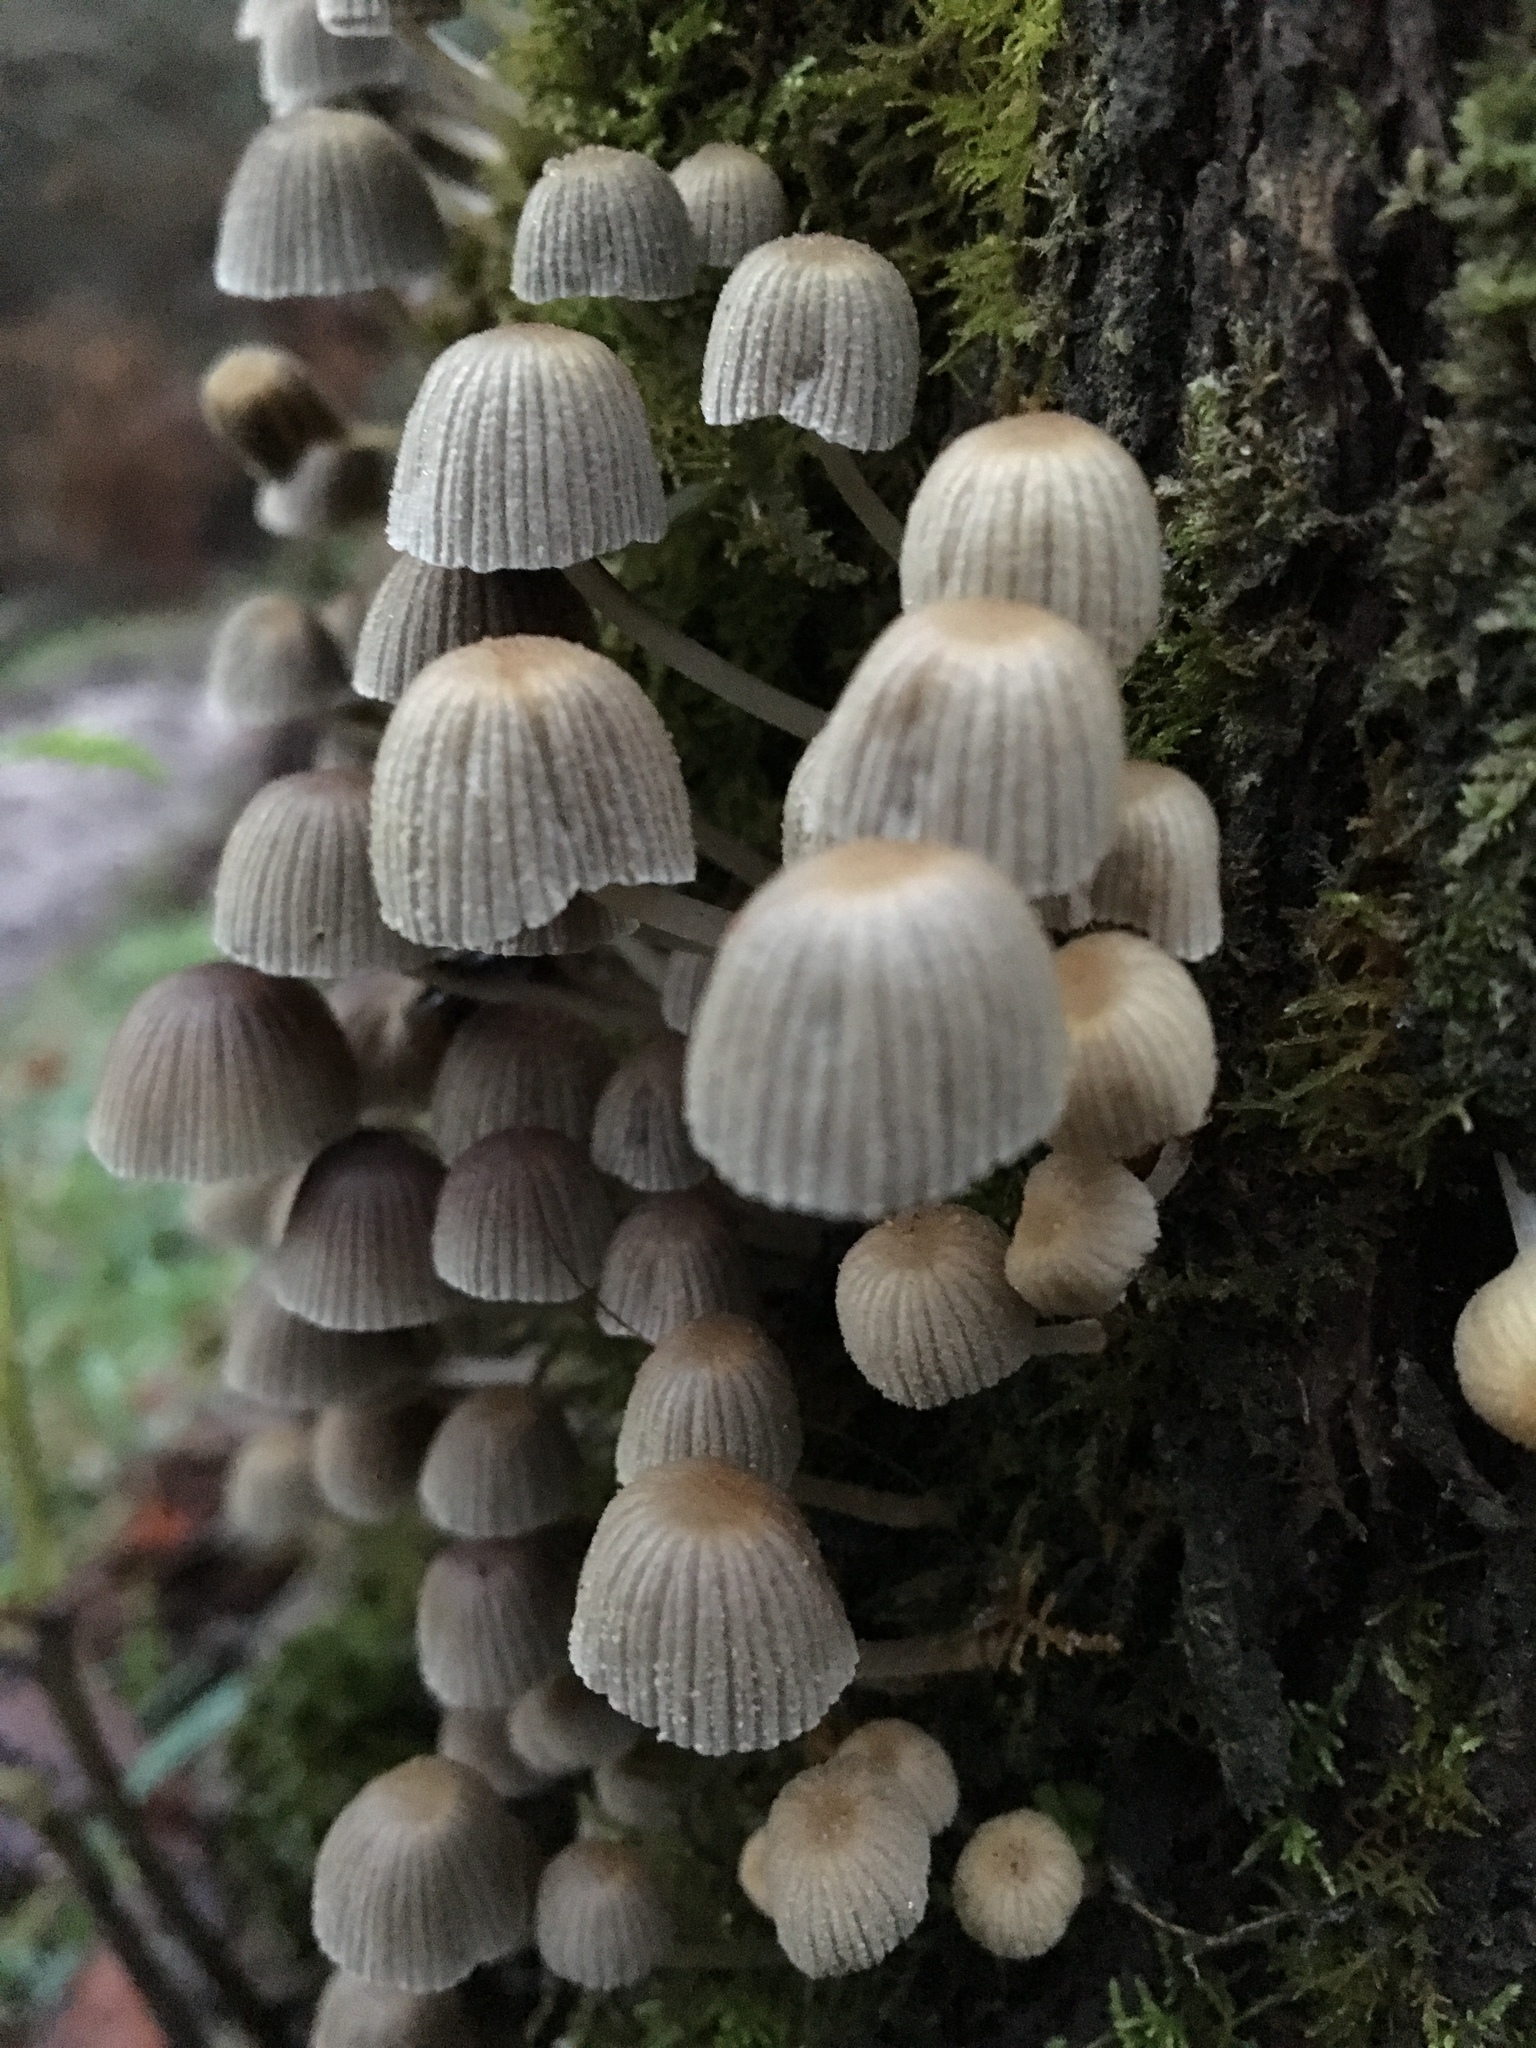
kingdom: Fungi
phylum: Basidiomycota
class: Agaricomycetes
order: Agaricales
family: Psathyrellaceae
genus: Coprinellus
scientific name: Coprinellus disseminatus
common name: Fairies' bonnets
